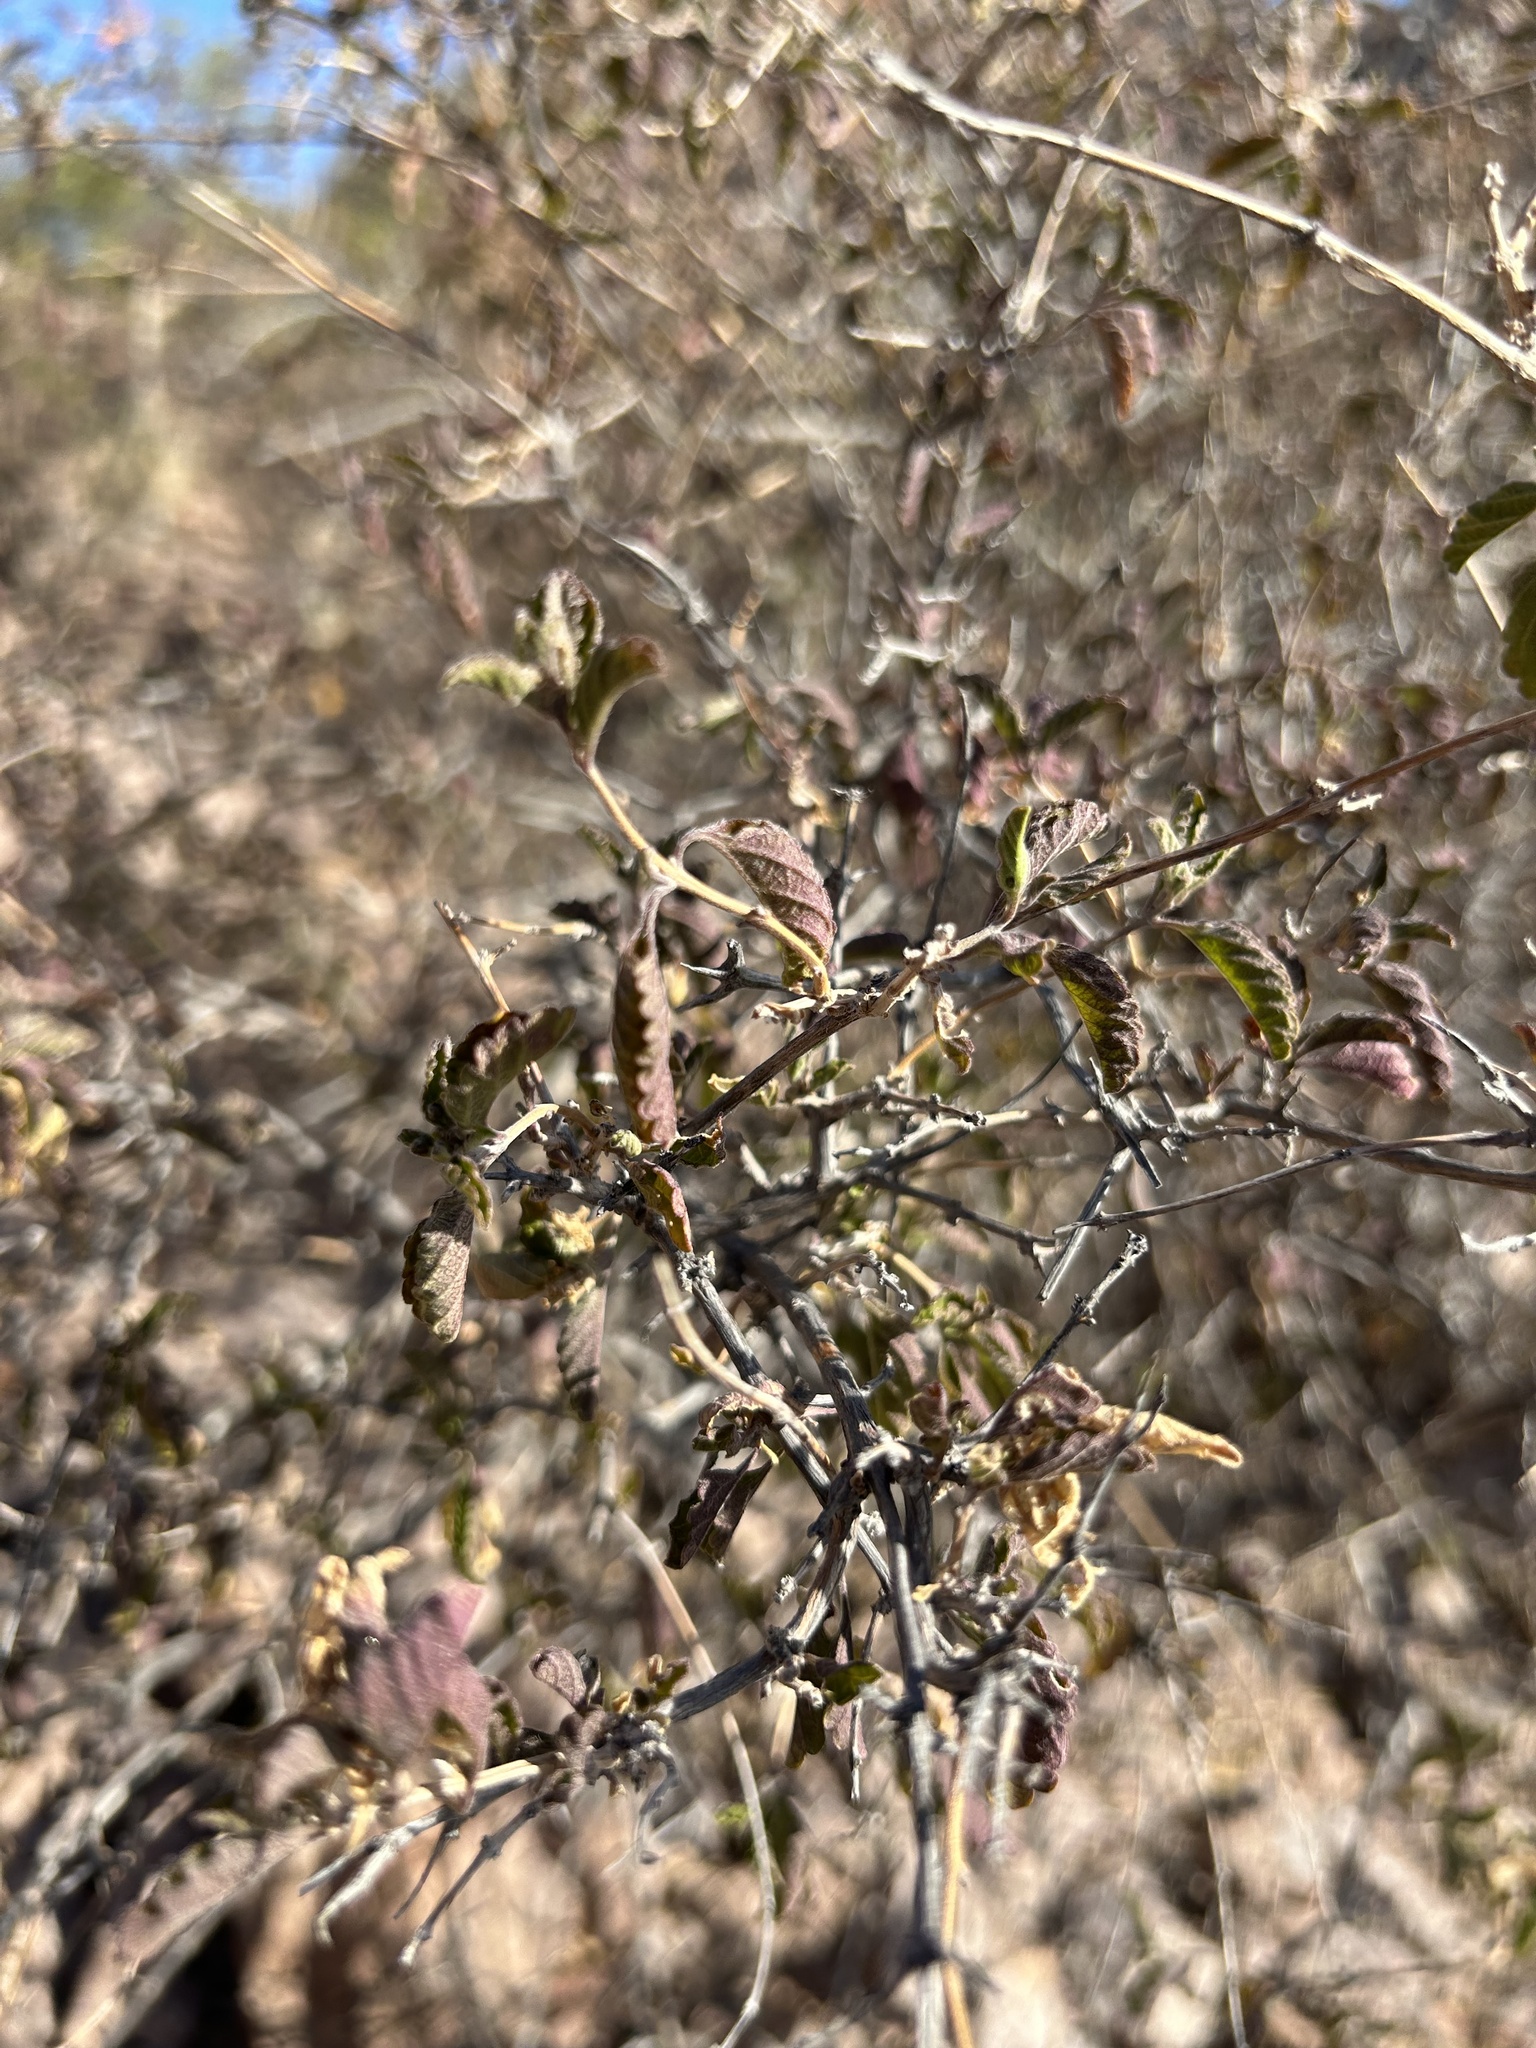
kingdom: Plantae
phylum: Tracheophyta
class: Magnoliopsida
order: Lamiales
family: Verbenaceae
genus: Lippia
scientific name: Lippia origanoides
